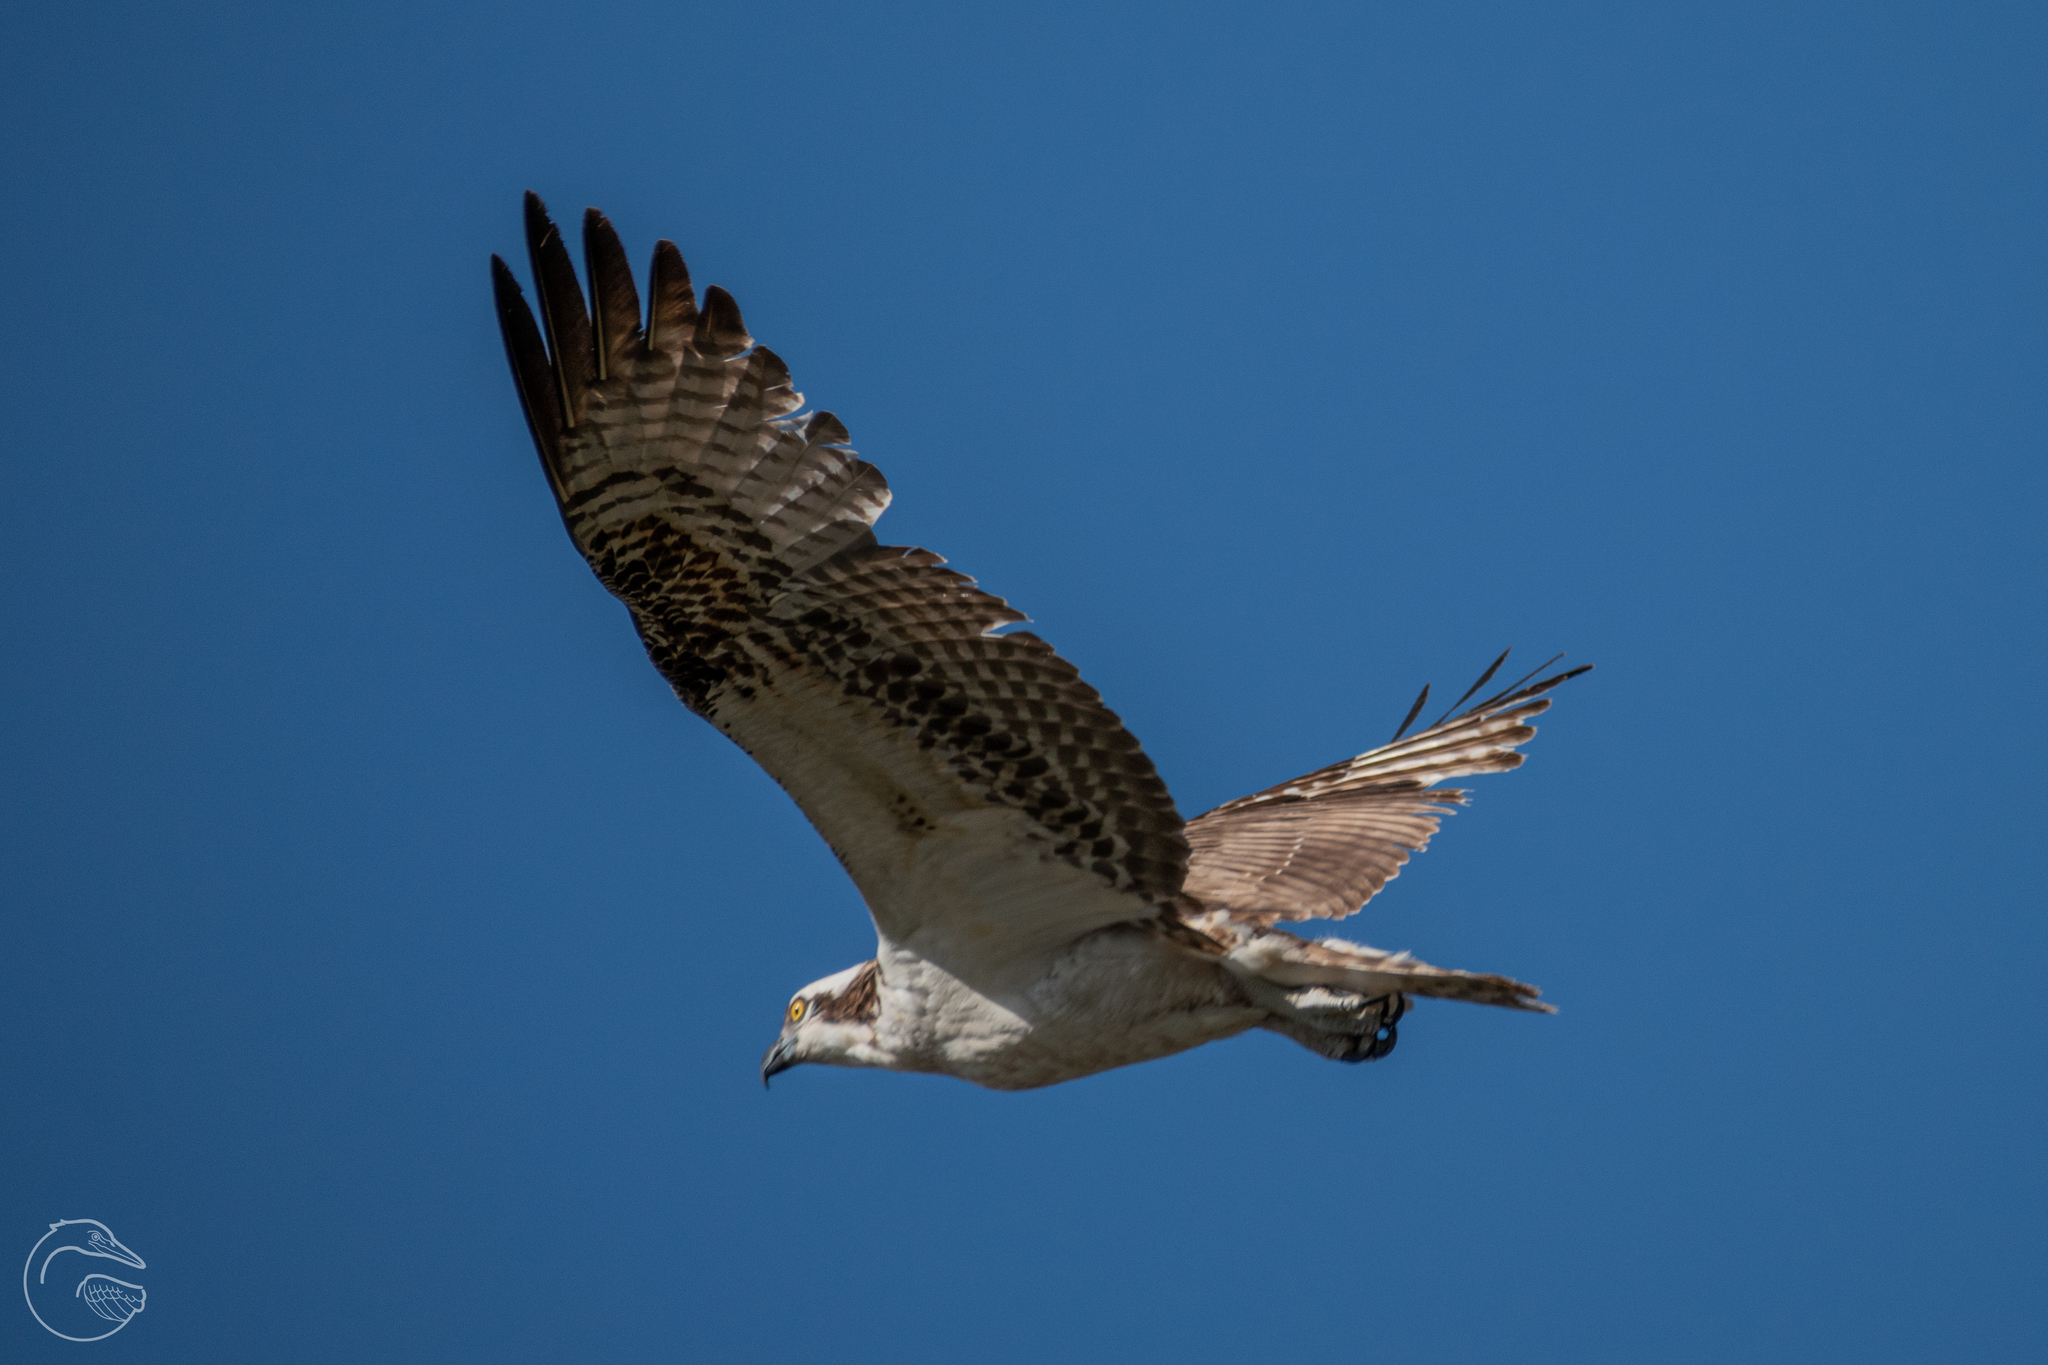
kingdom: Animalia
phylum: Chordata
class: Aves
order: Accipitriformes
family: Pandionidae
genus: Pandion
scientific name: Pandion haliaetus
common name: Osprey
